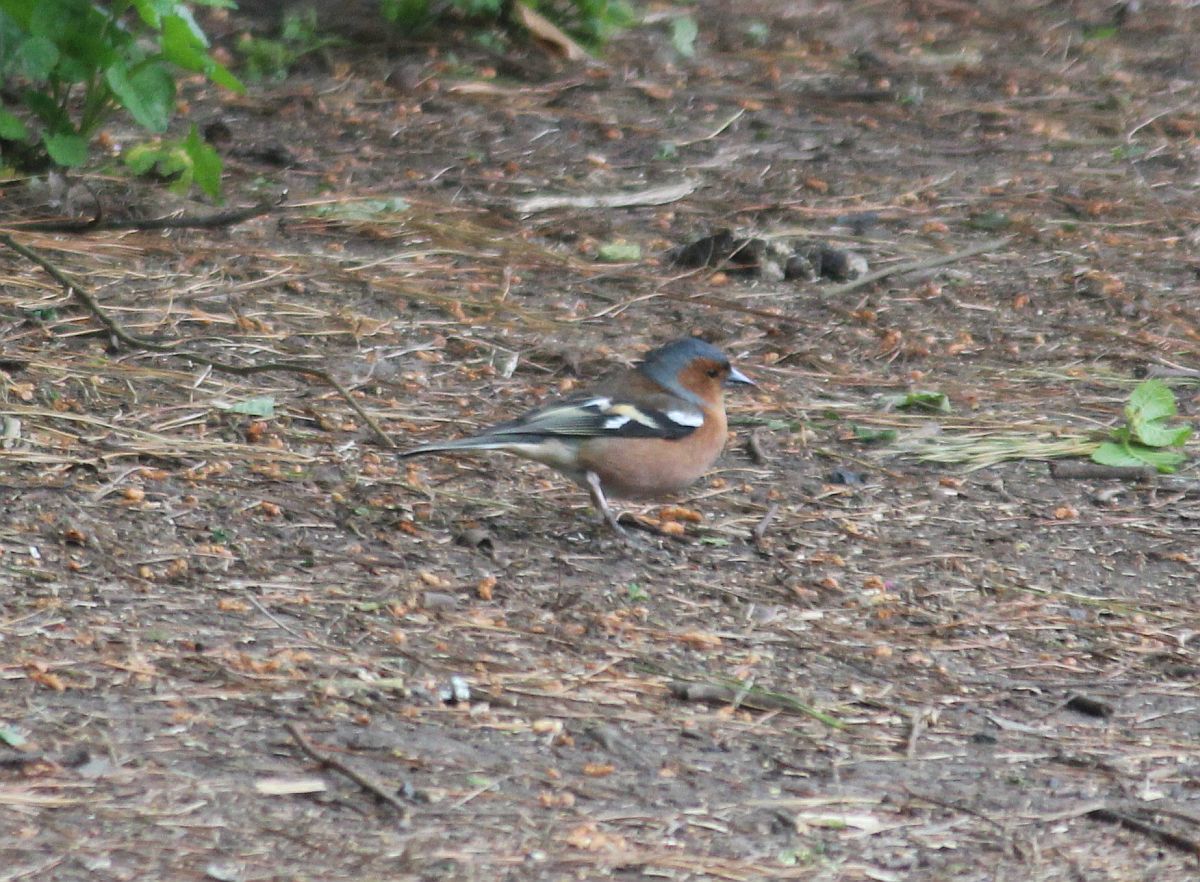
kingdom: Animalia
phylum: Chordata
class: Aves
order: Passeriformes
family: Fringillidae
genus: Fringilla
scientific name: Fringilla coelebs
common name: Common chaffinch
